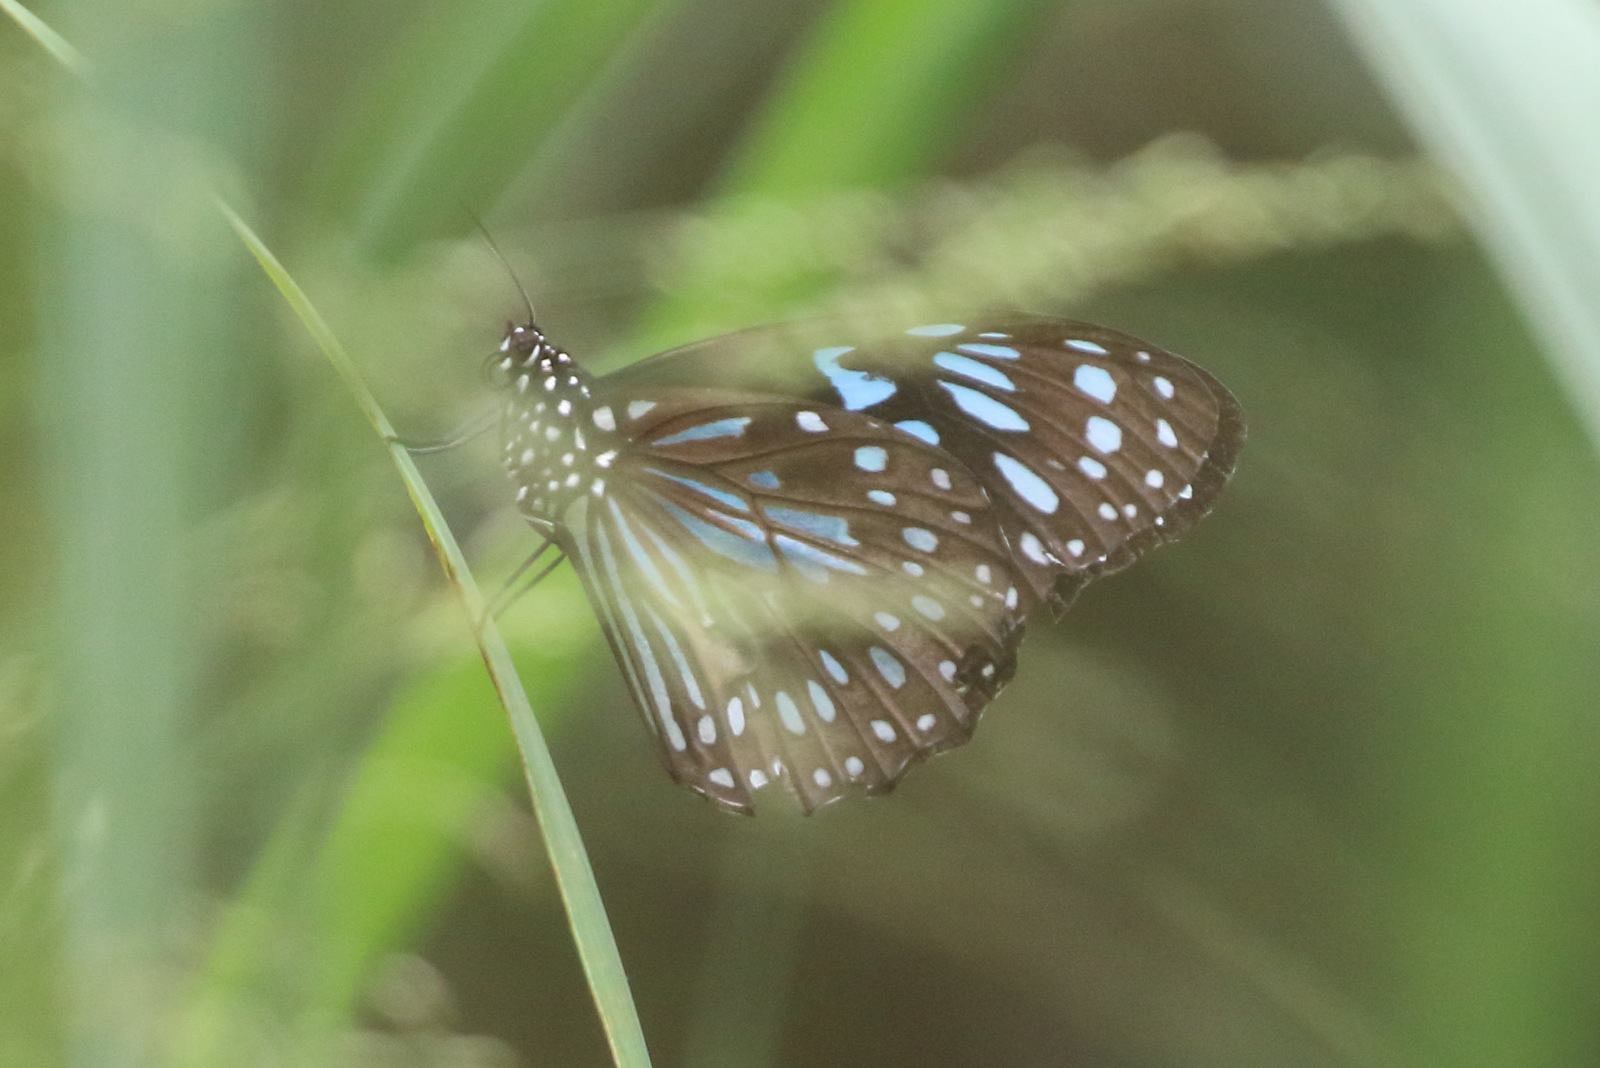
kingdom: Animalia
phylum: Arthropoda
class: Insecta
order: Lepidoptera
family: Nymphalidae
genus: Tirumala
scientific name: Tirumala hamata
